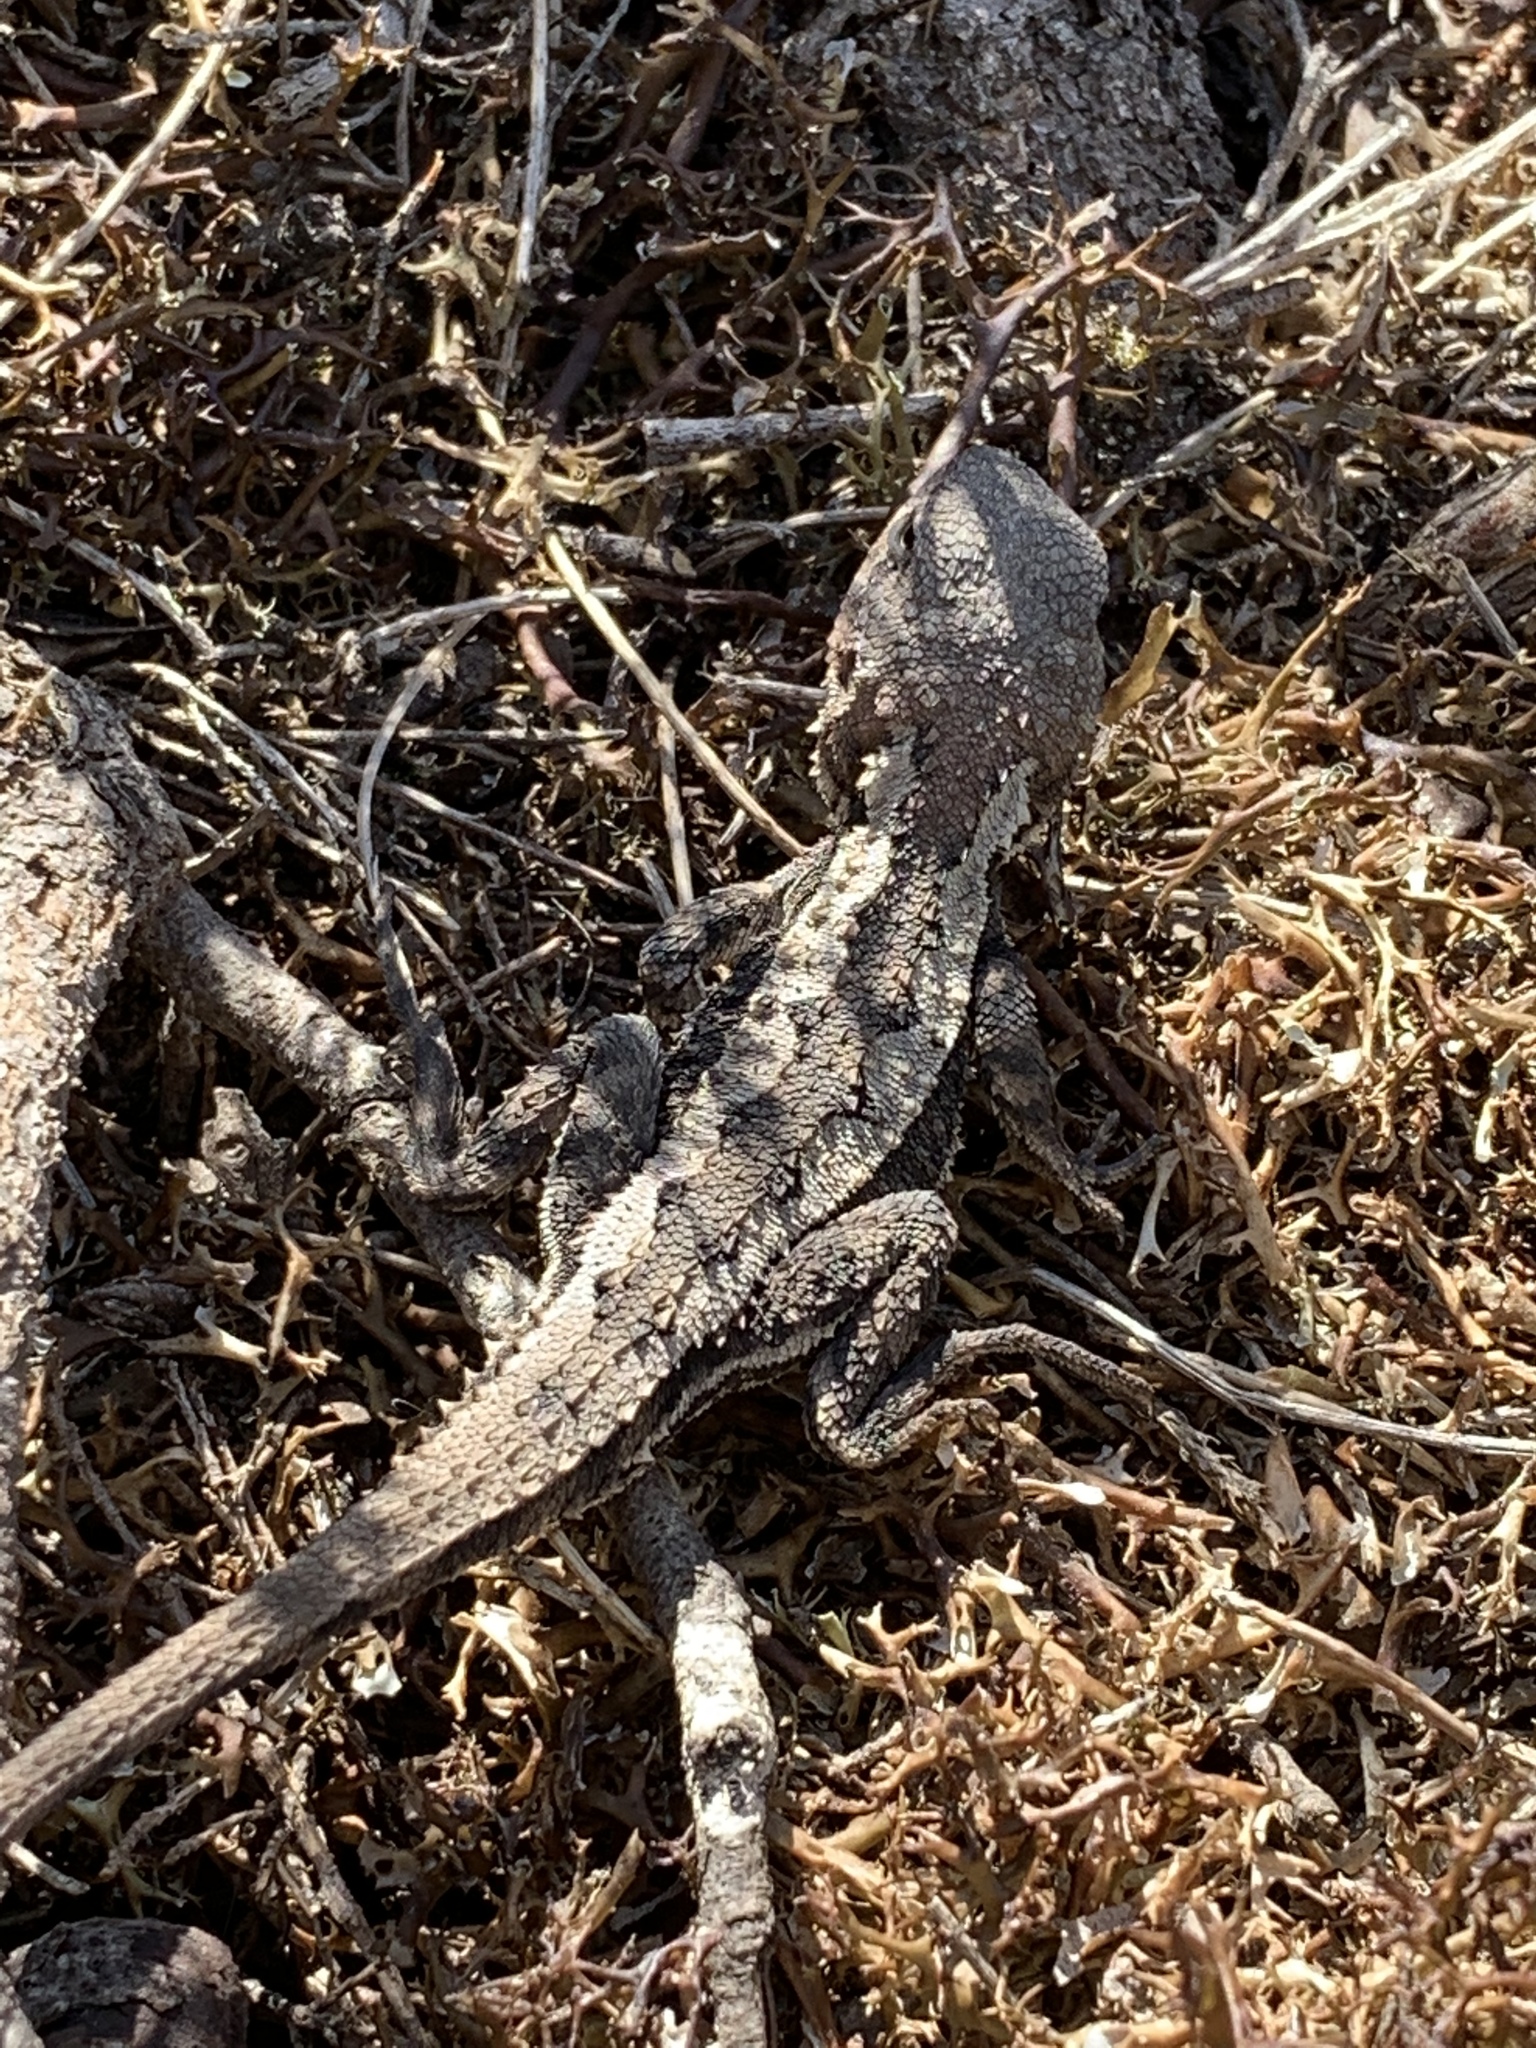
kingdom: Animalia
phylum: Chordata
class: Squamata
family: Agamidae
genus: Rankinia
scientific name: Rankinia diemensis
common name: Mountain dragon
